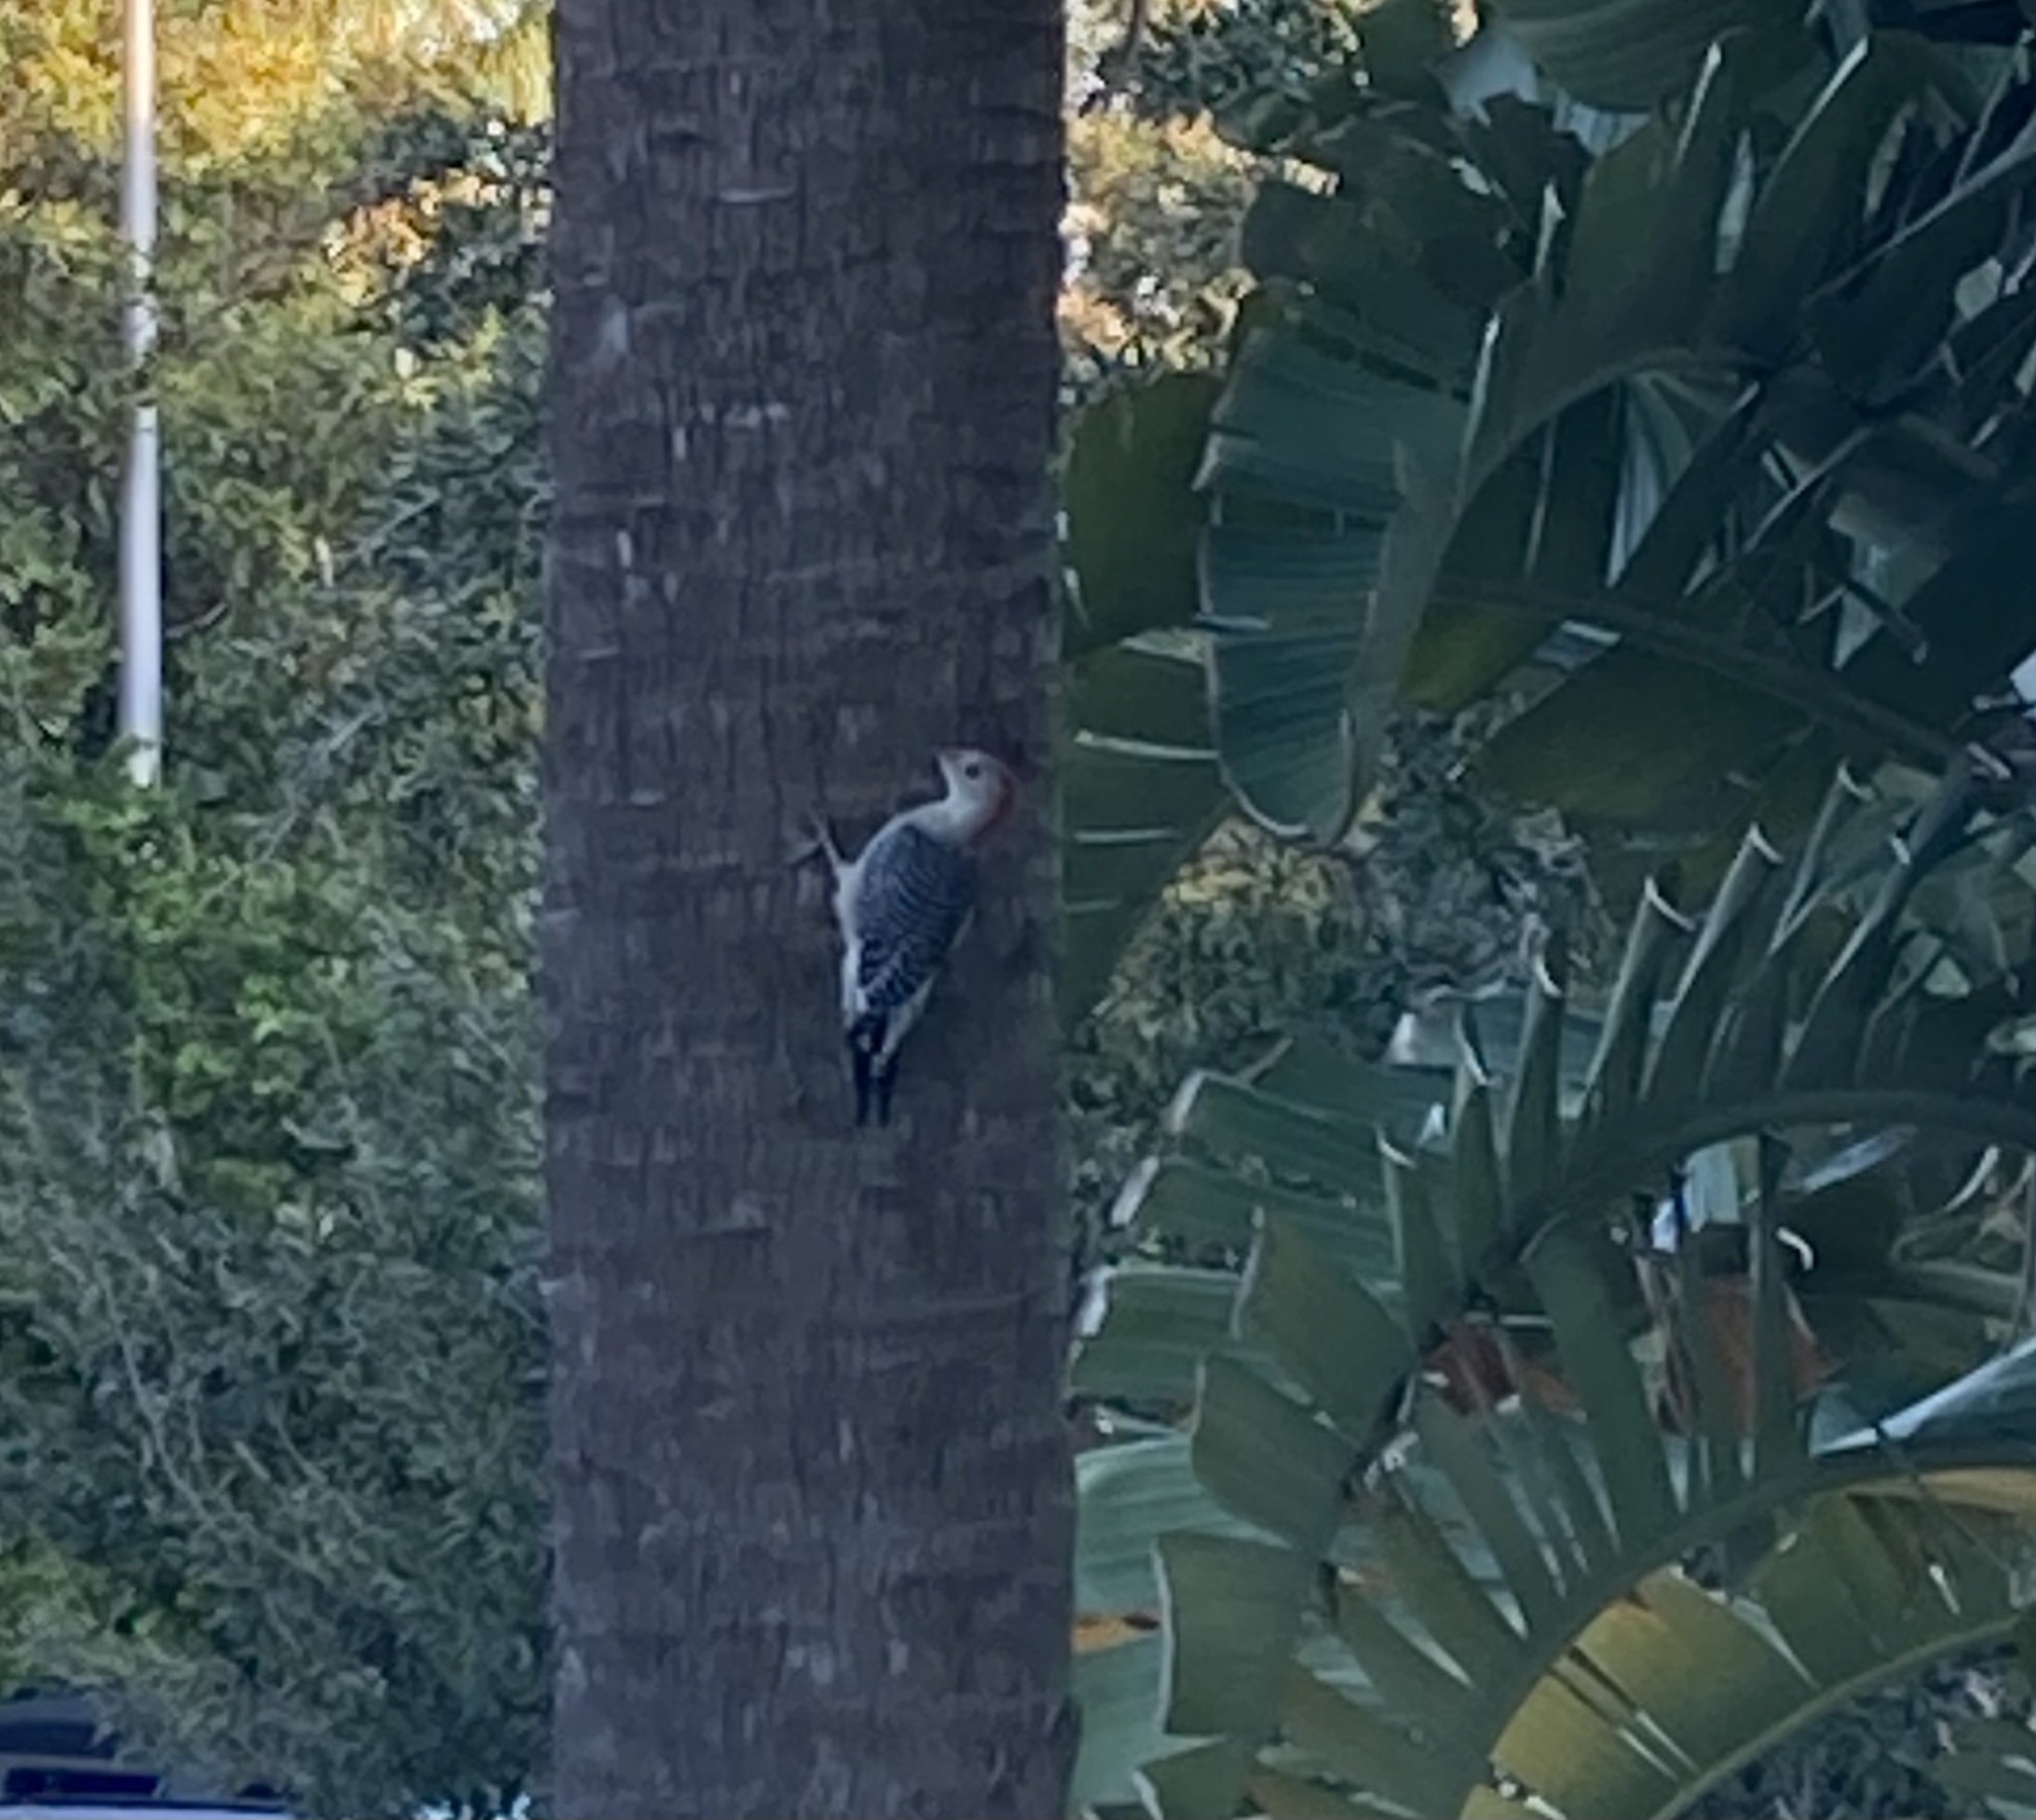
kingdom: Animalia
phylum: Chordata
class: Aves
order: Piciformes
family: Picidae
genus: Melanerpes
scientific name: Melanerpes carolinus
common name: Red-bellied woodpecker
